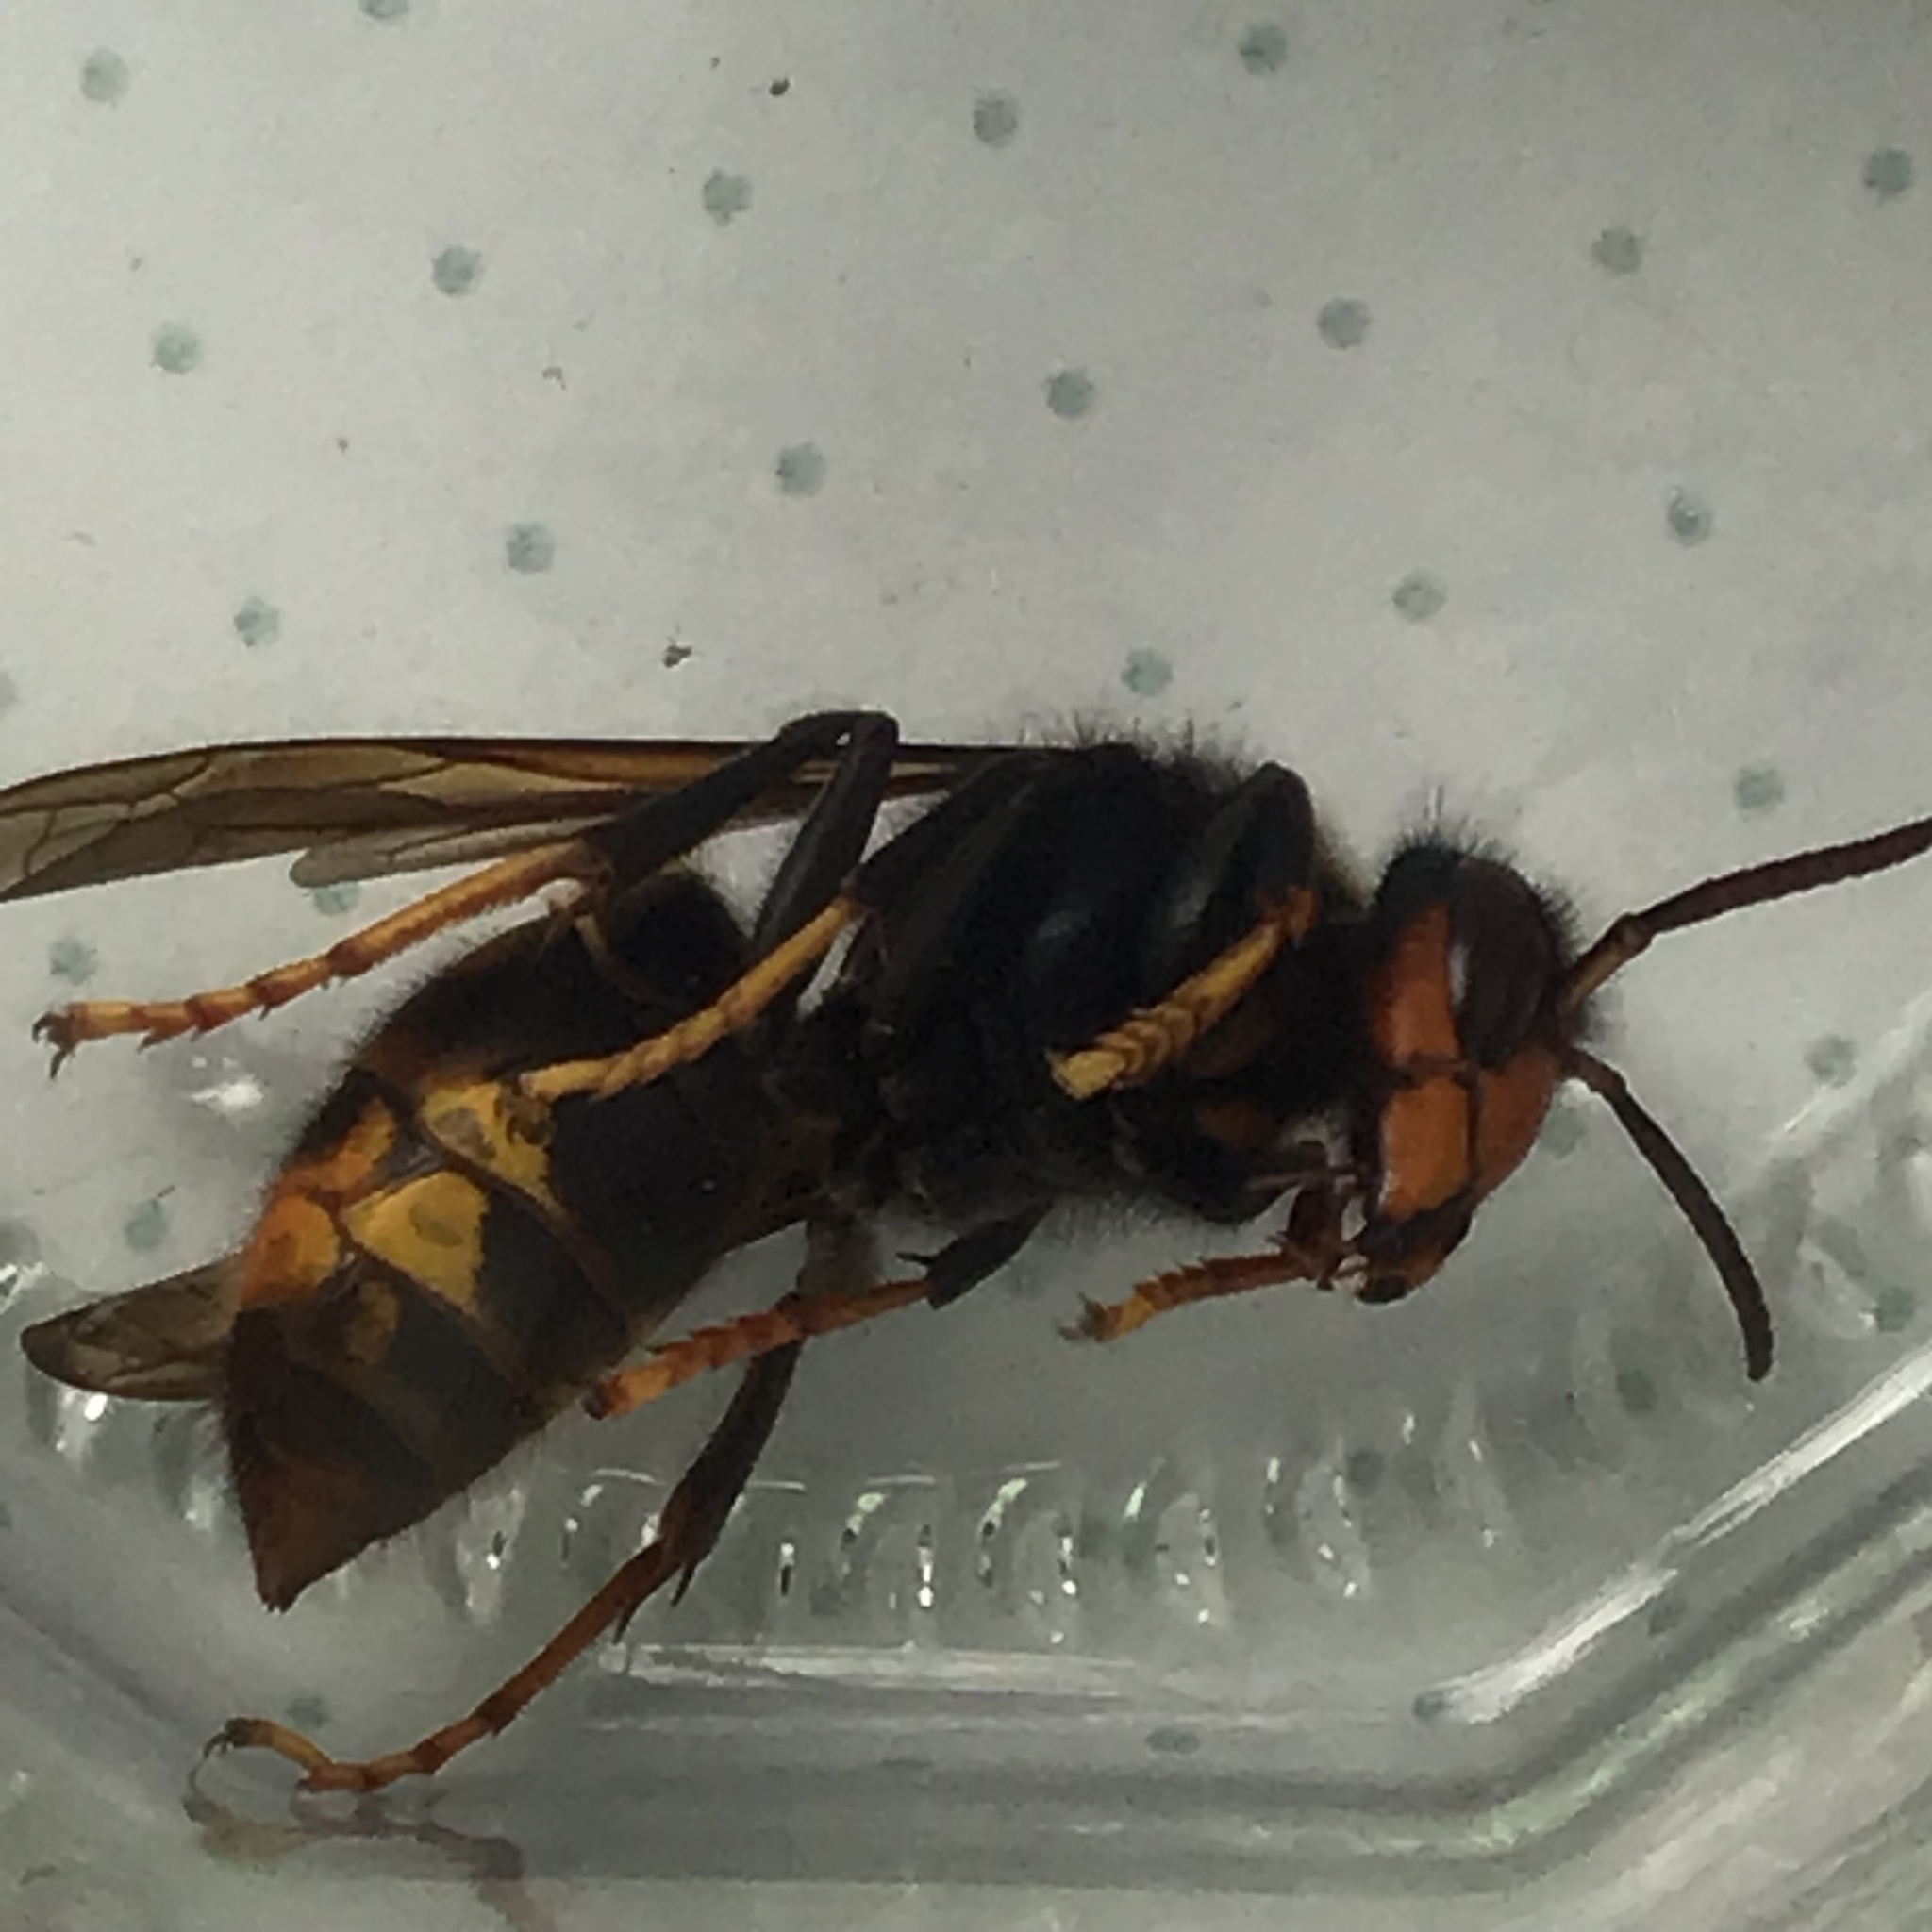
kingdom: Animalia
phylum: Arthropoda
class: Insecta
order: Hymenoptera
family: Vespidae
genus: Vespa
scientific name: Vespa velutina
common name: Asian hornet
